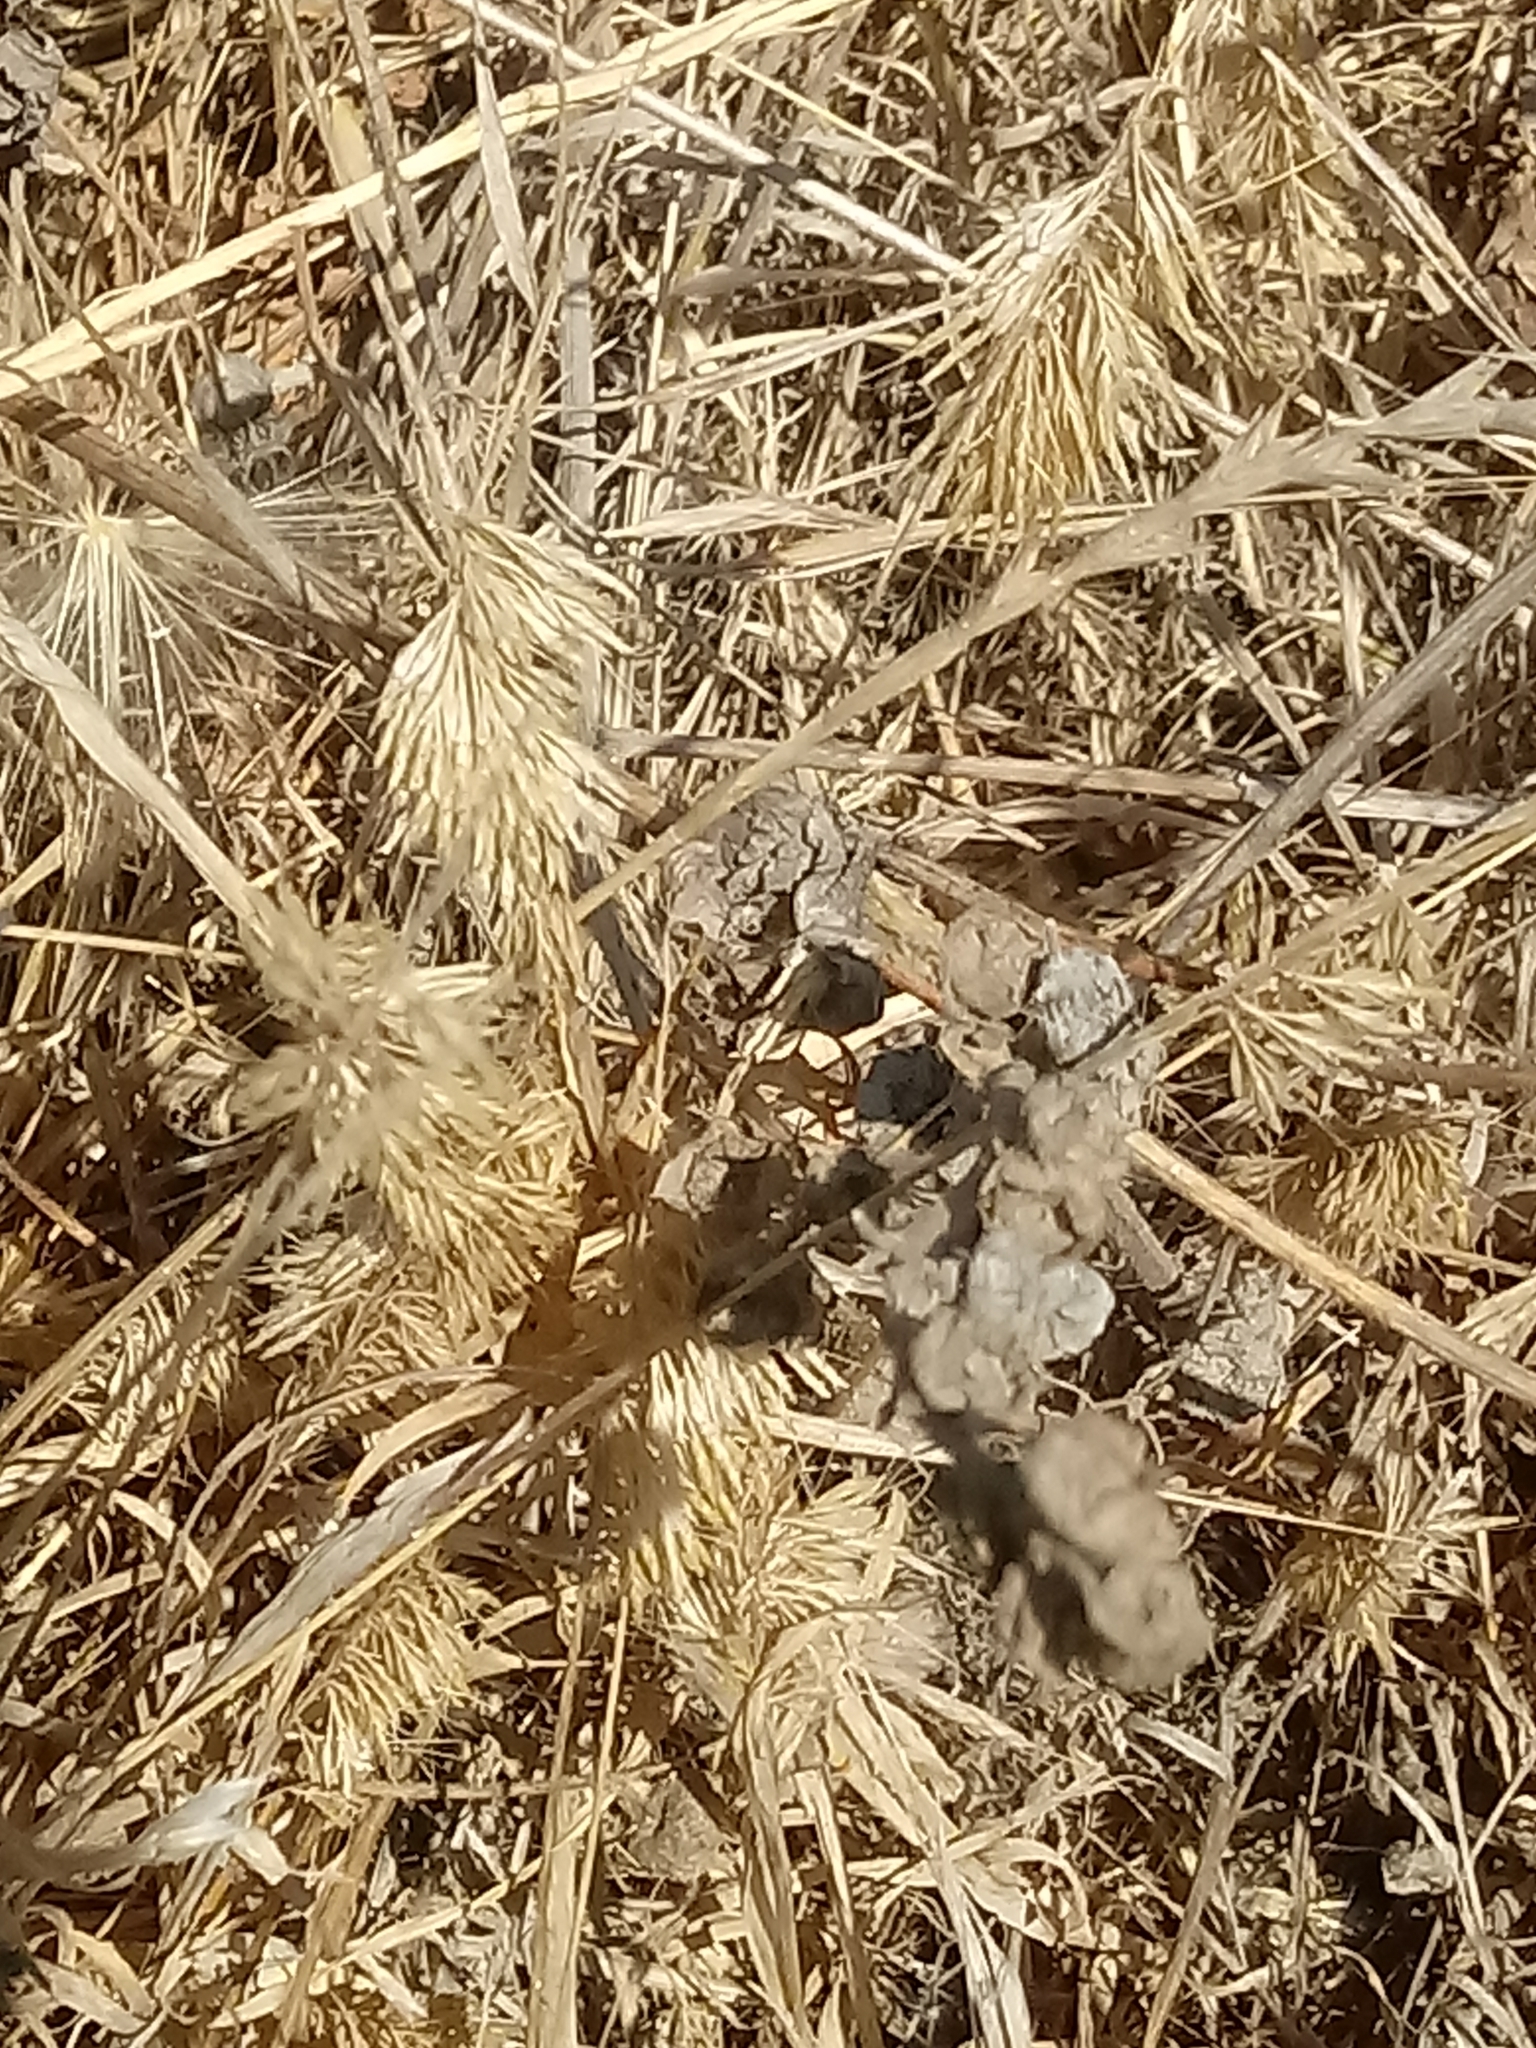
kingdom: Plantae
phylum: Tracheophyta
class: Liliopsida
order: Poales
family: Poaceae
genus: Lamarckia
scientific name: Lamarckia aurea
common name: Golden dog's-tail
